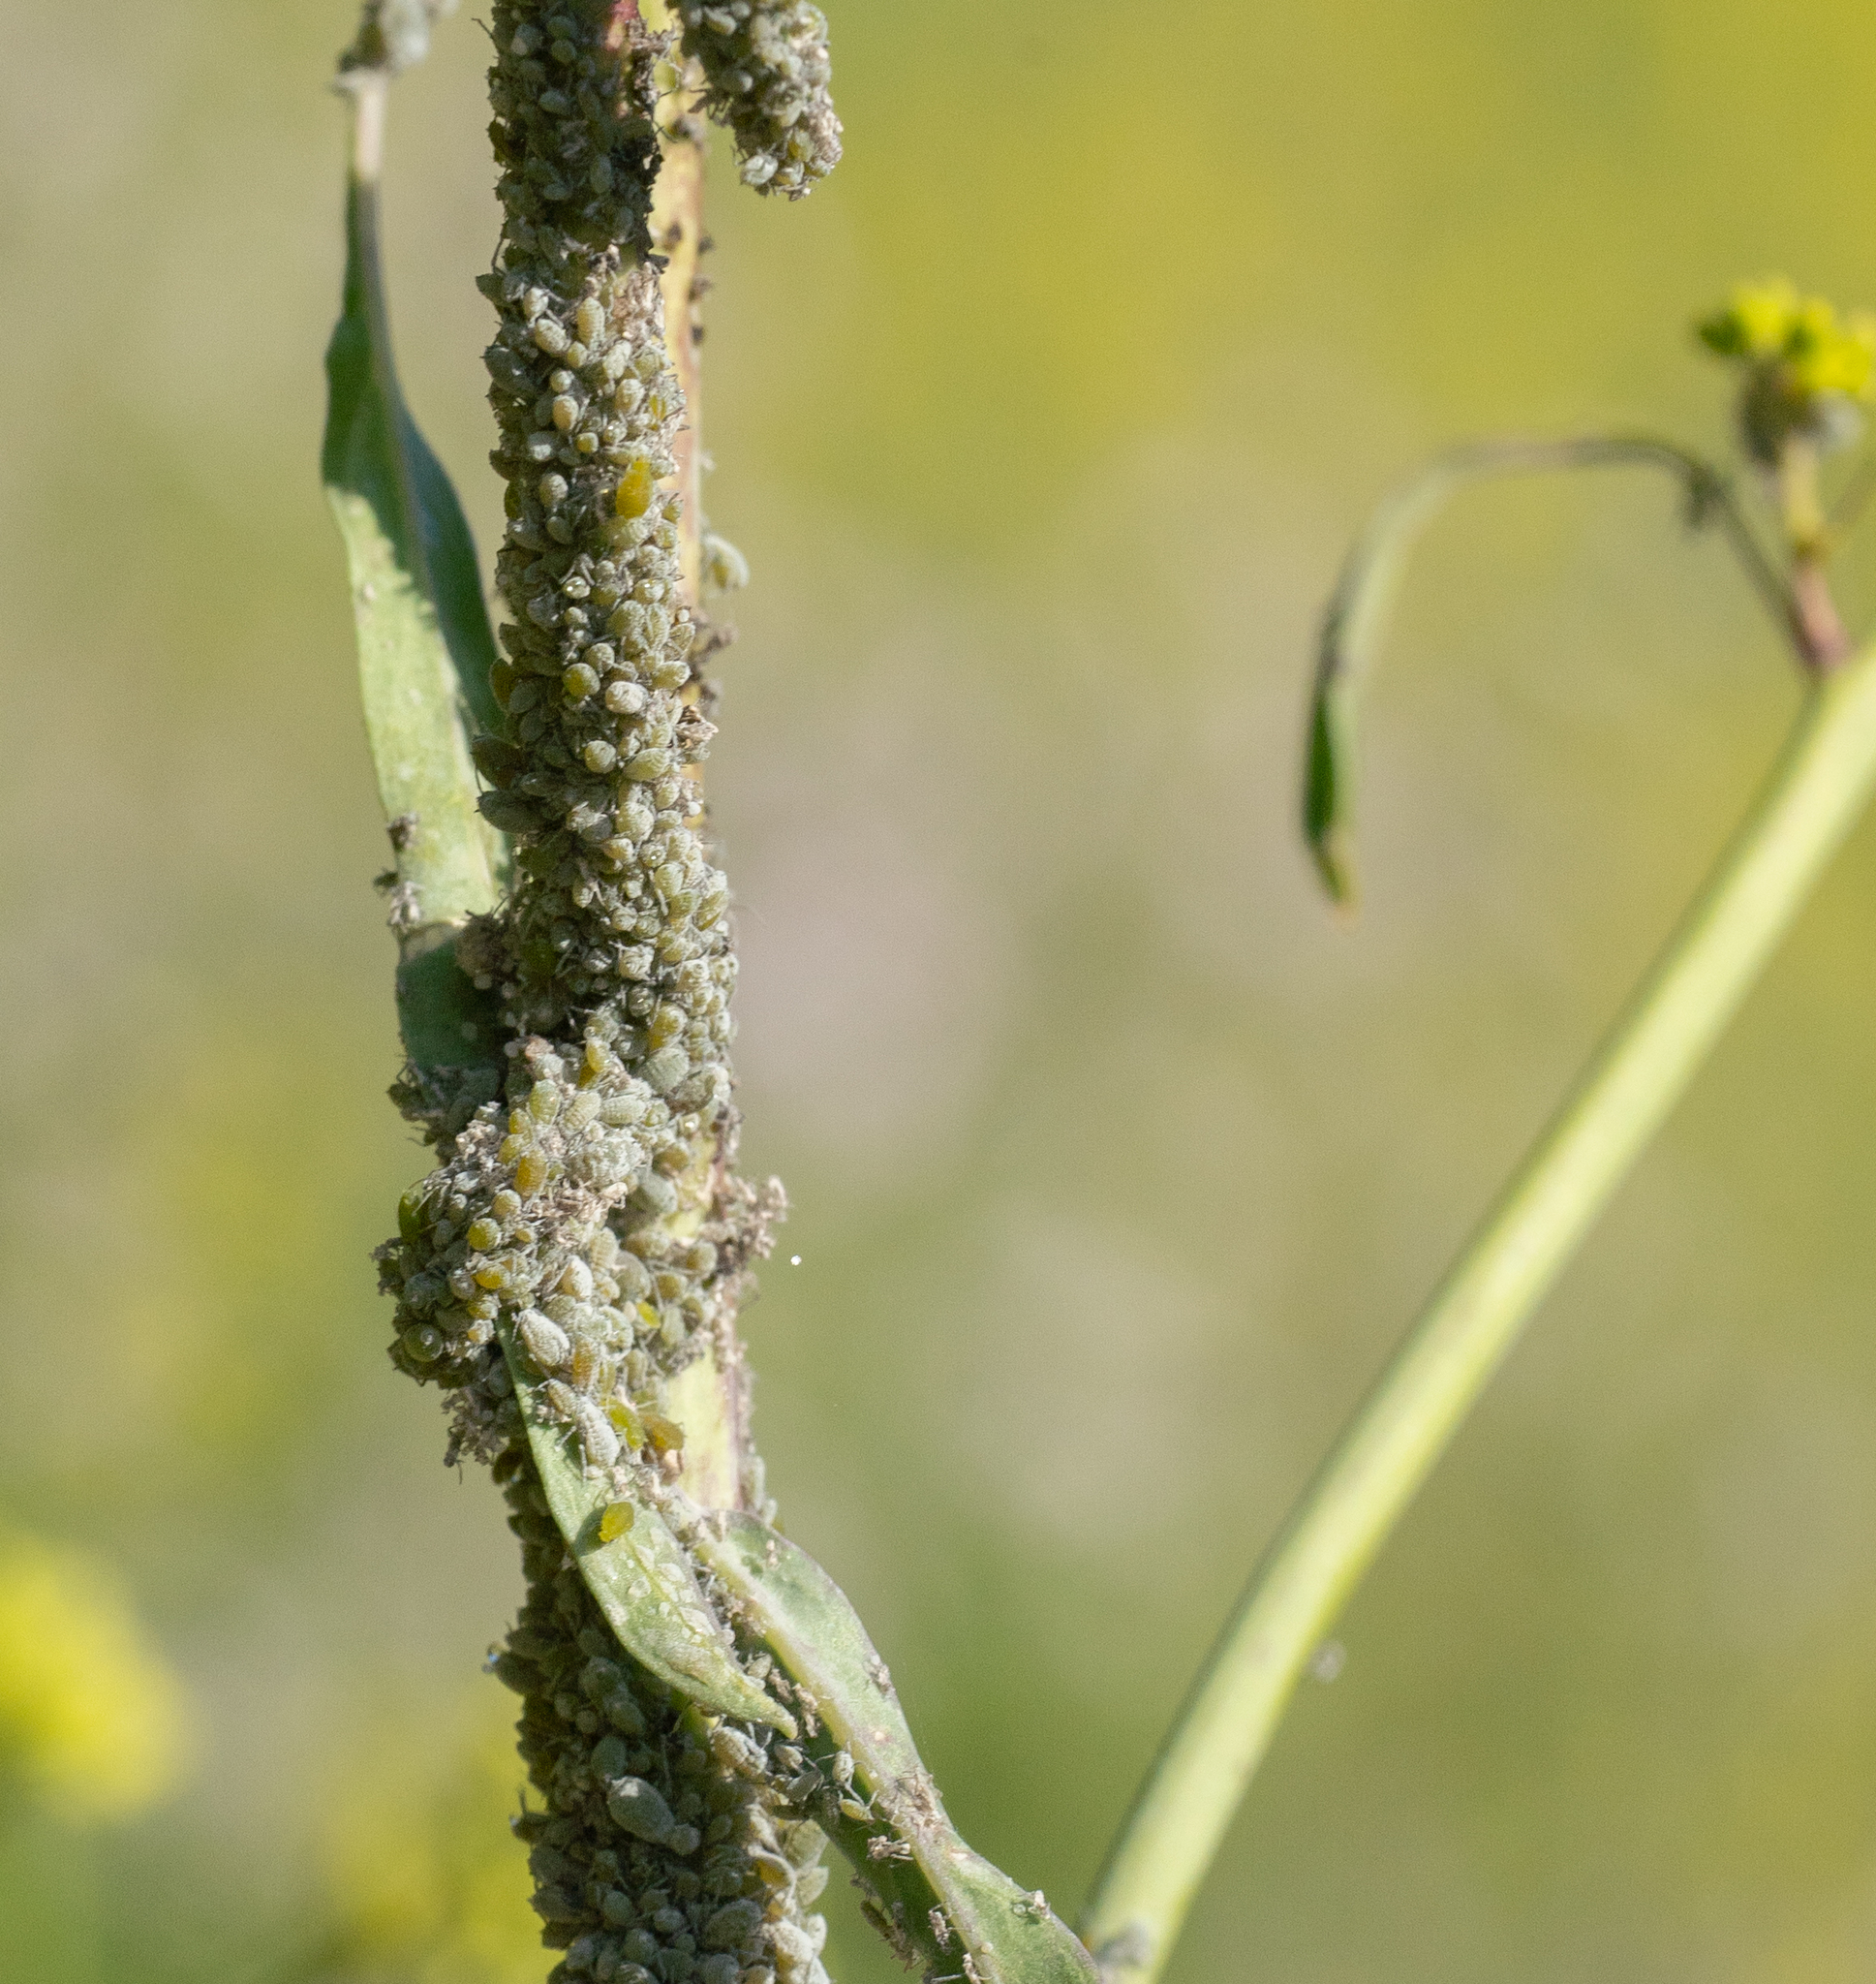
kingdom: Animalia
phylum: Arthropoda
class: Insecta
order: Hemiptera
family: Aphididae
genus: Brevicoryne
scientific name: Brevicoryne brassicae
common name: Cabbage aphid
